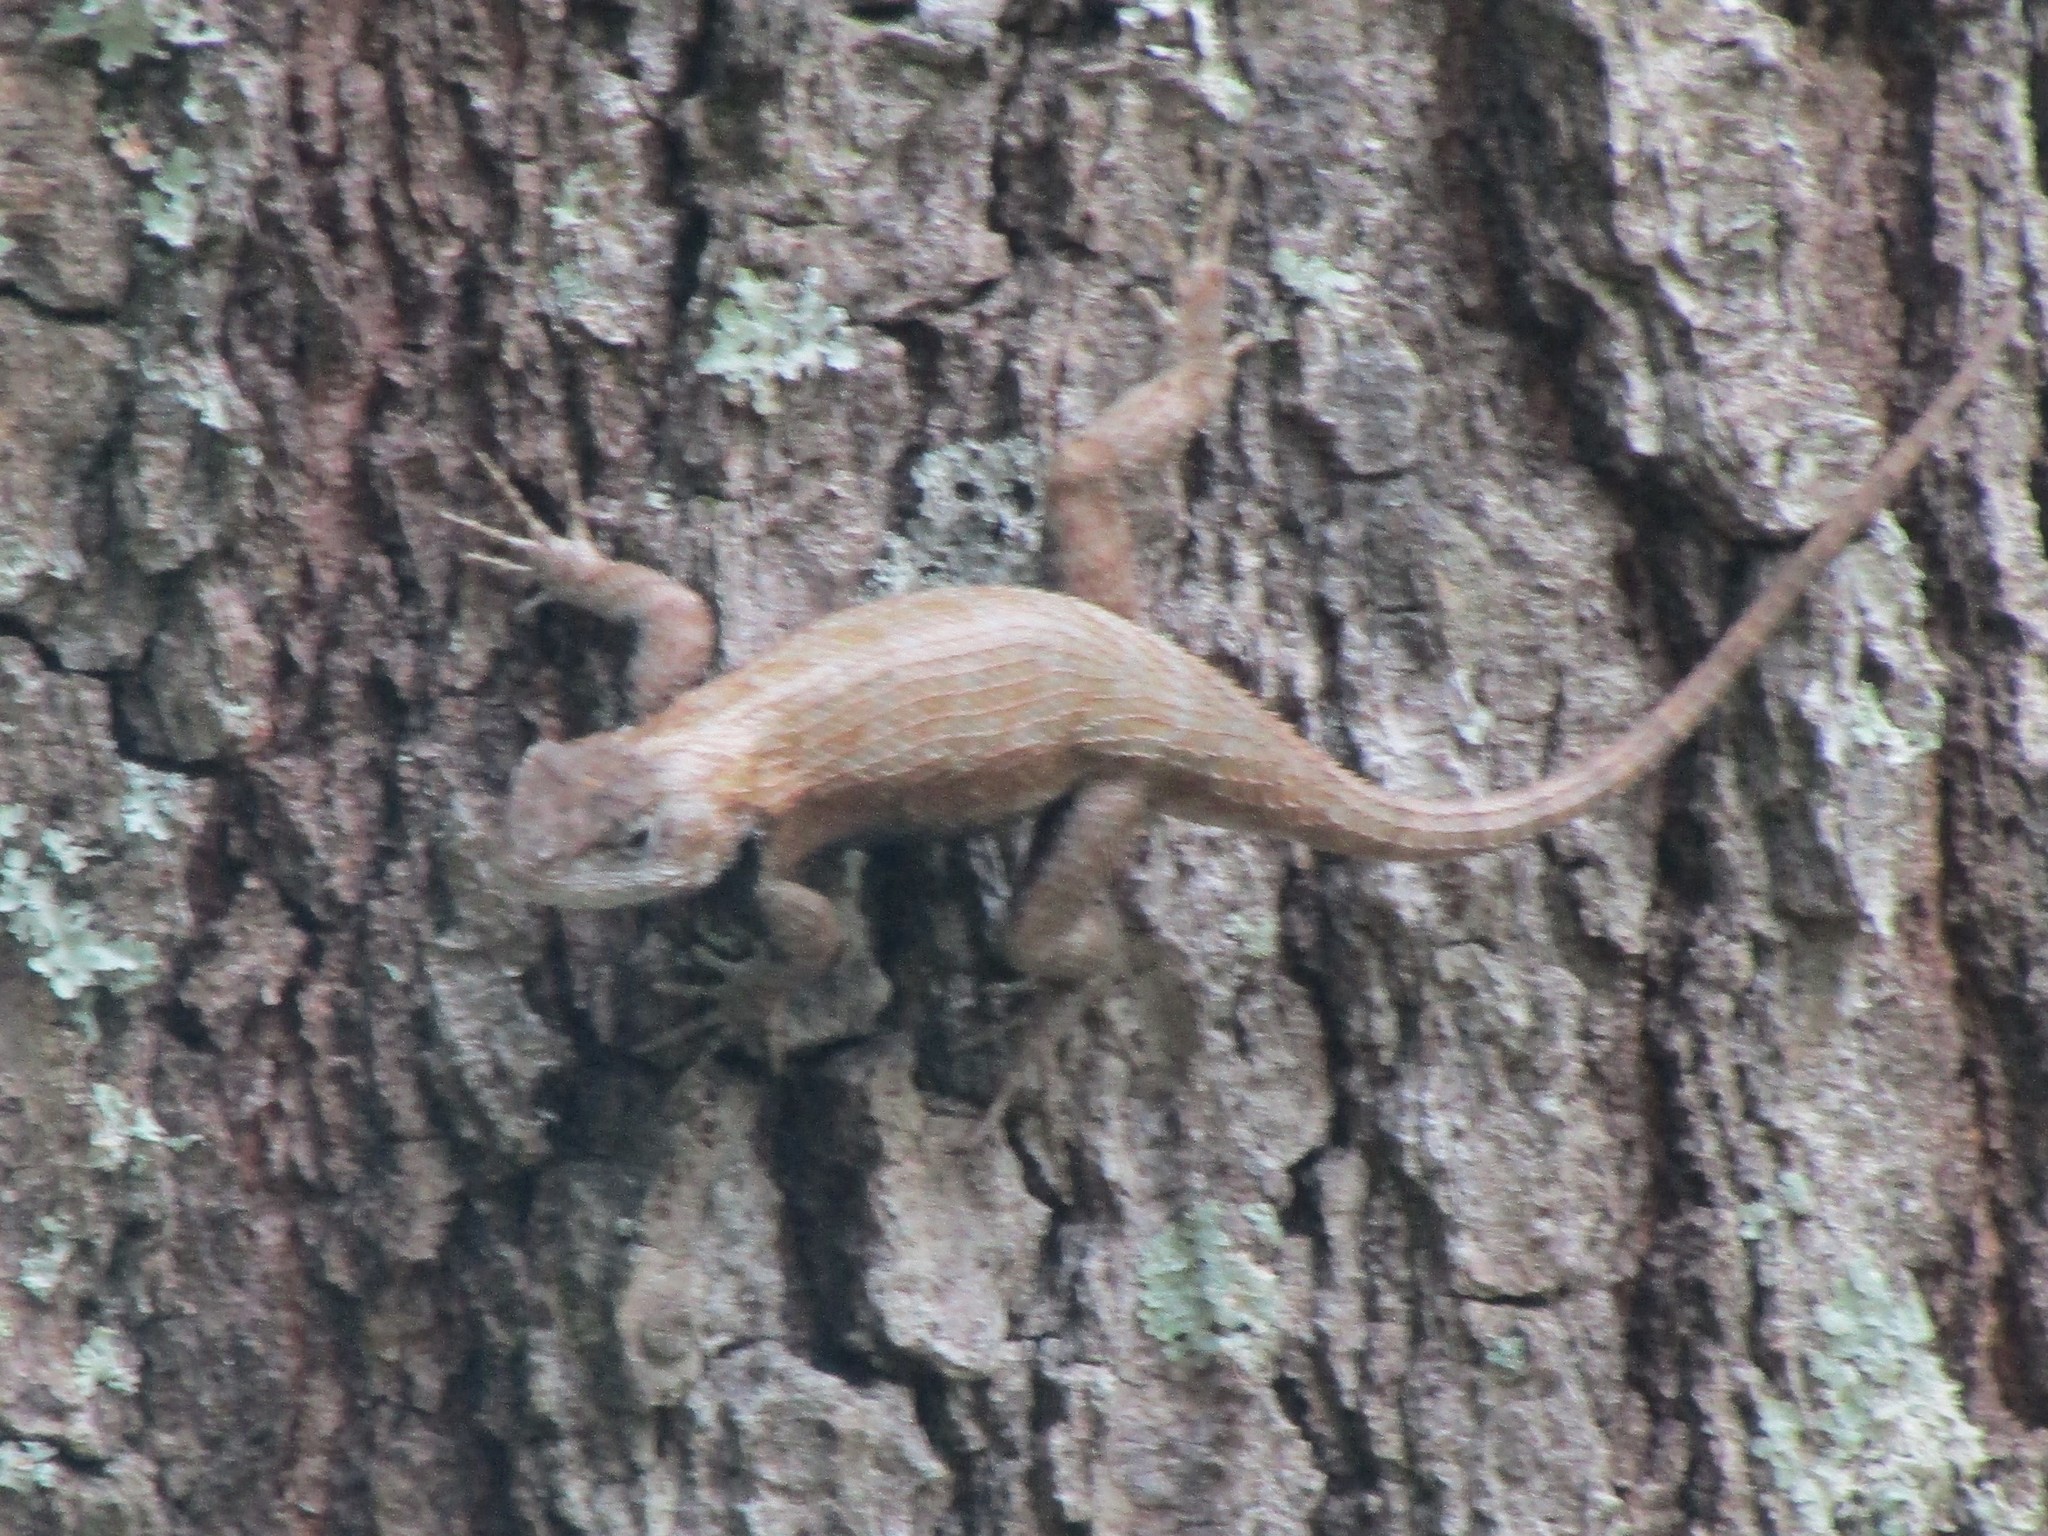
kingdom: Animalia
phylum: Chordata
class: Squamata
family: Phrynosomatidae
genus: Sceloporus
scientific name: Sceloporus undulatus
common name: Eastern fence lizard
